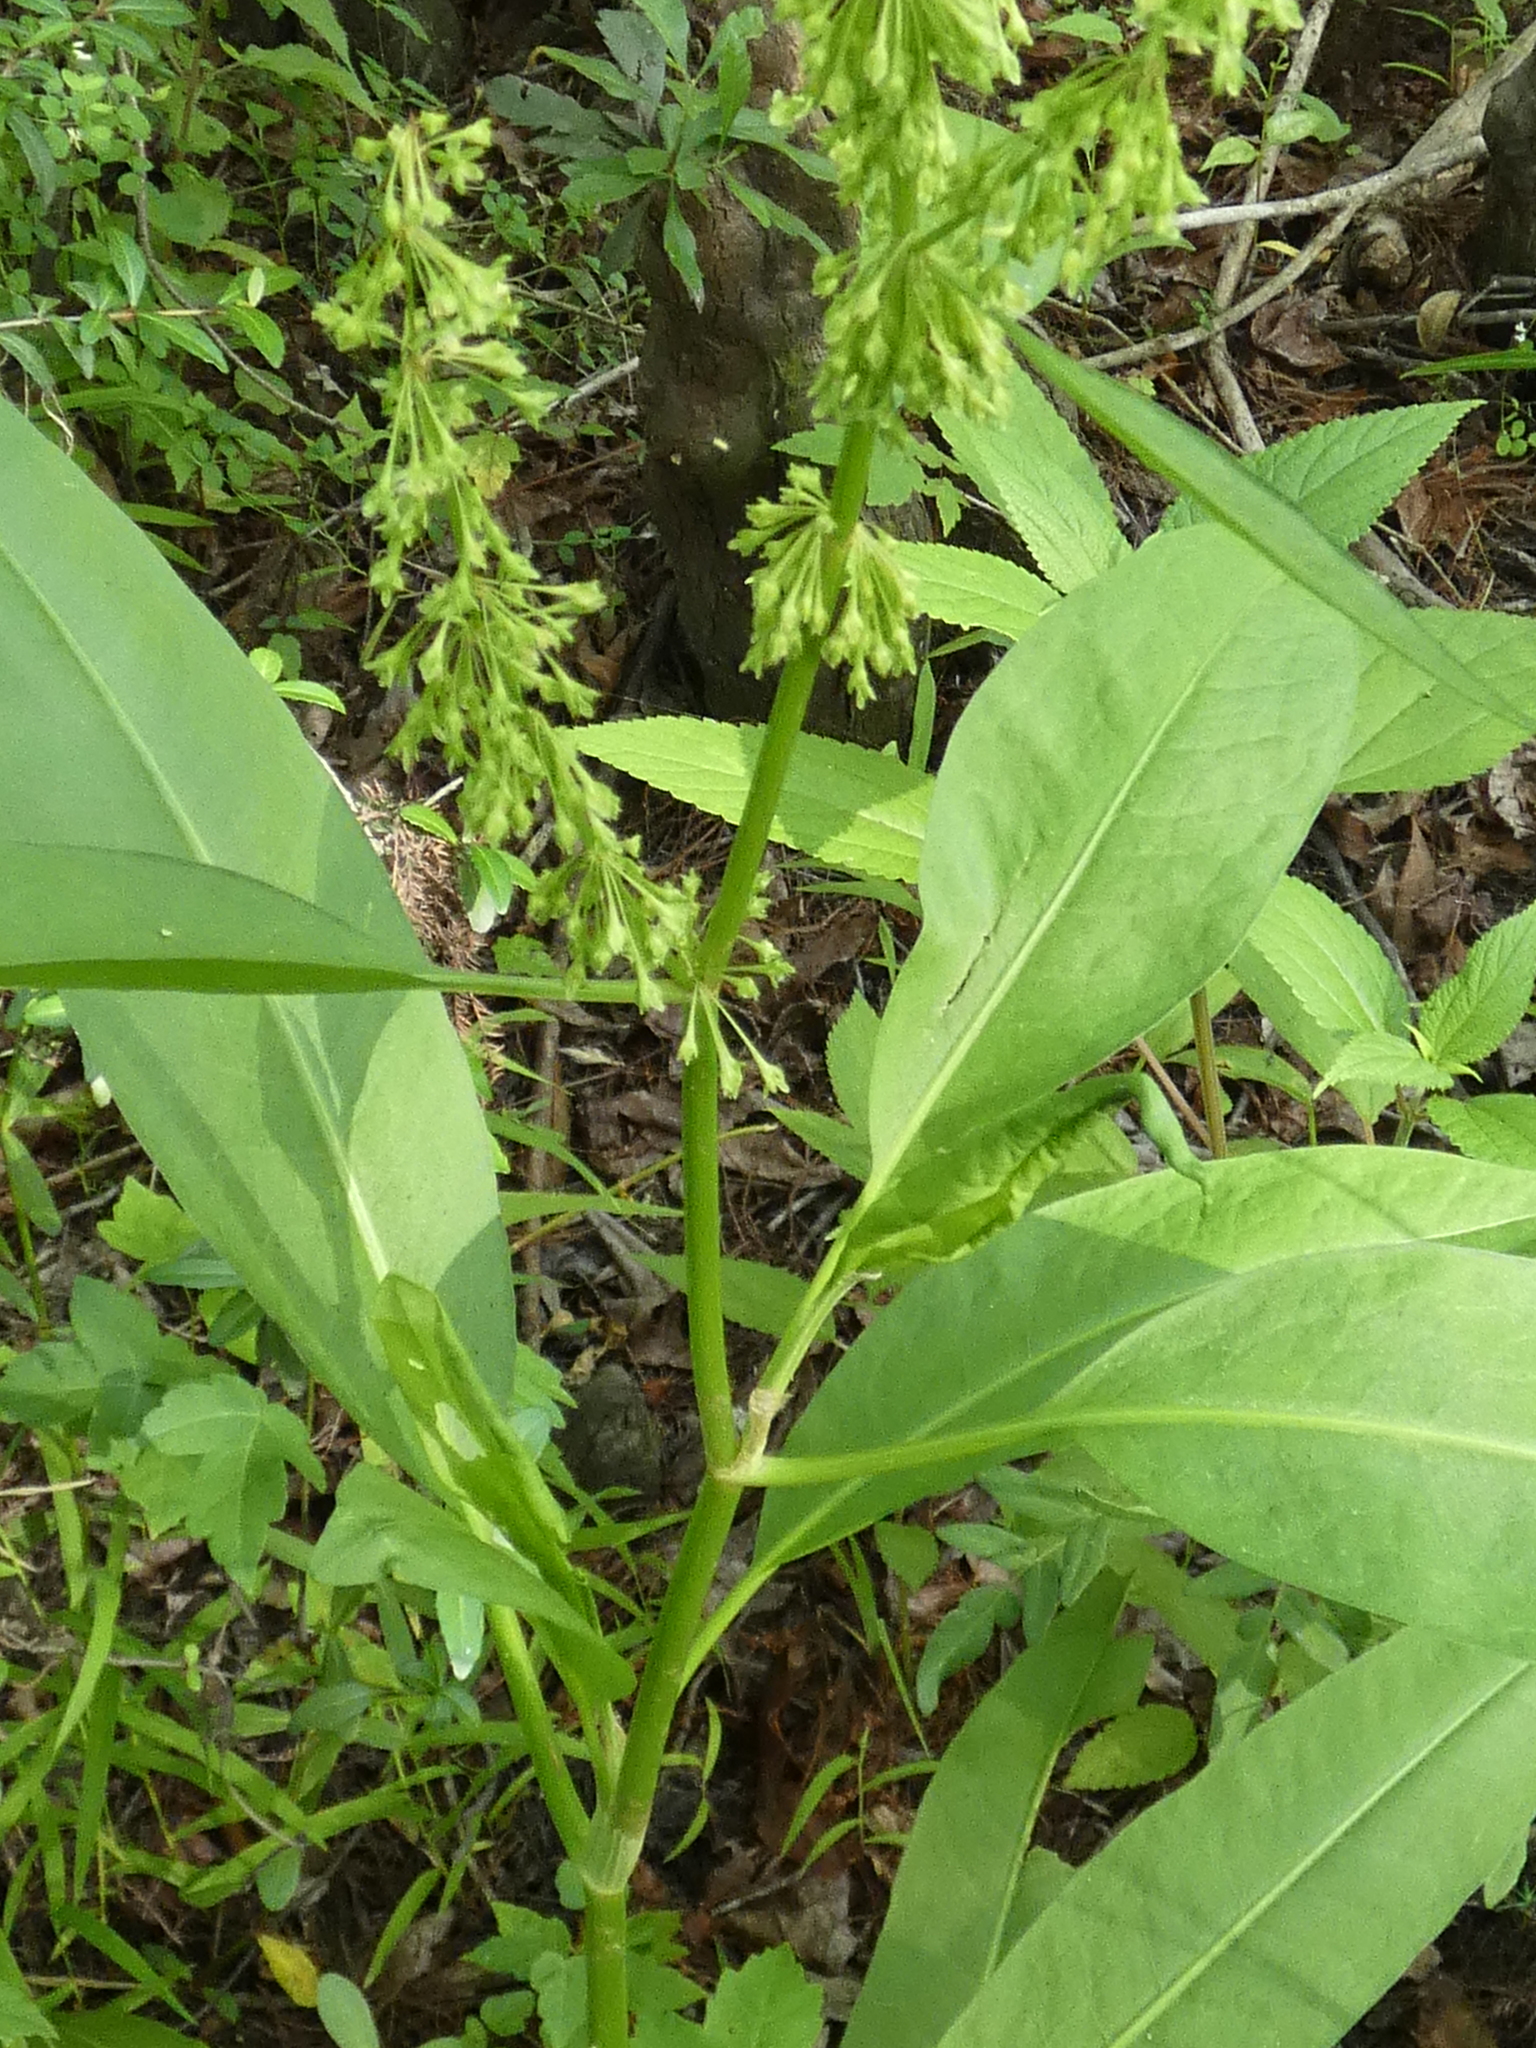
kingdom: Plantae
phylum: Tracheophyta
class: Magnoliopsida
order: Caryophyllales
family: Polygonaceae
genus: Rumex
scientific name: Rumex verticillatus
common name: Swamp dock
